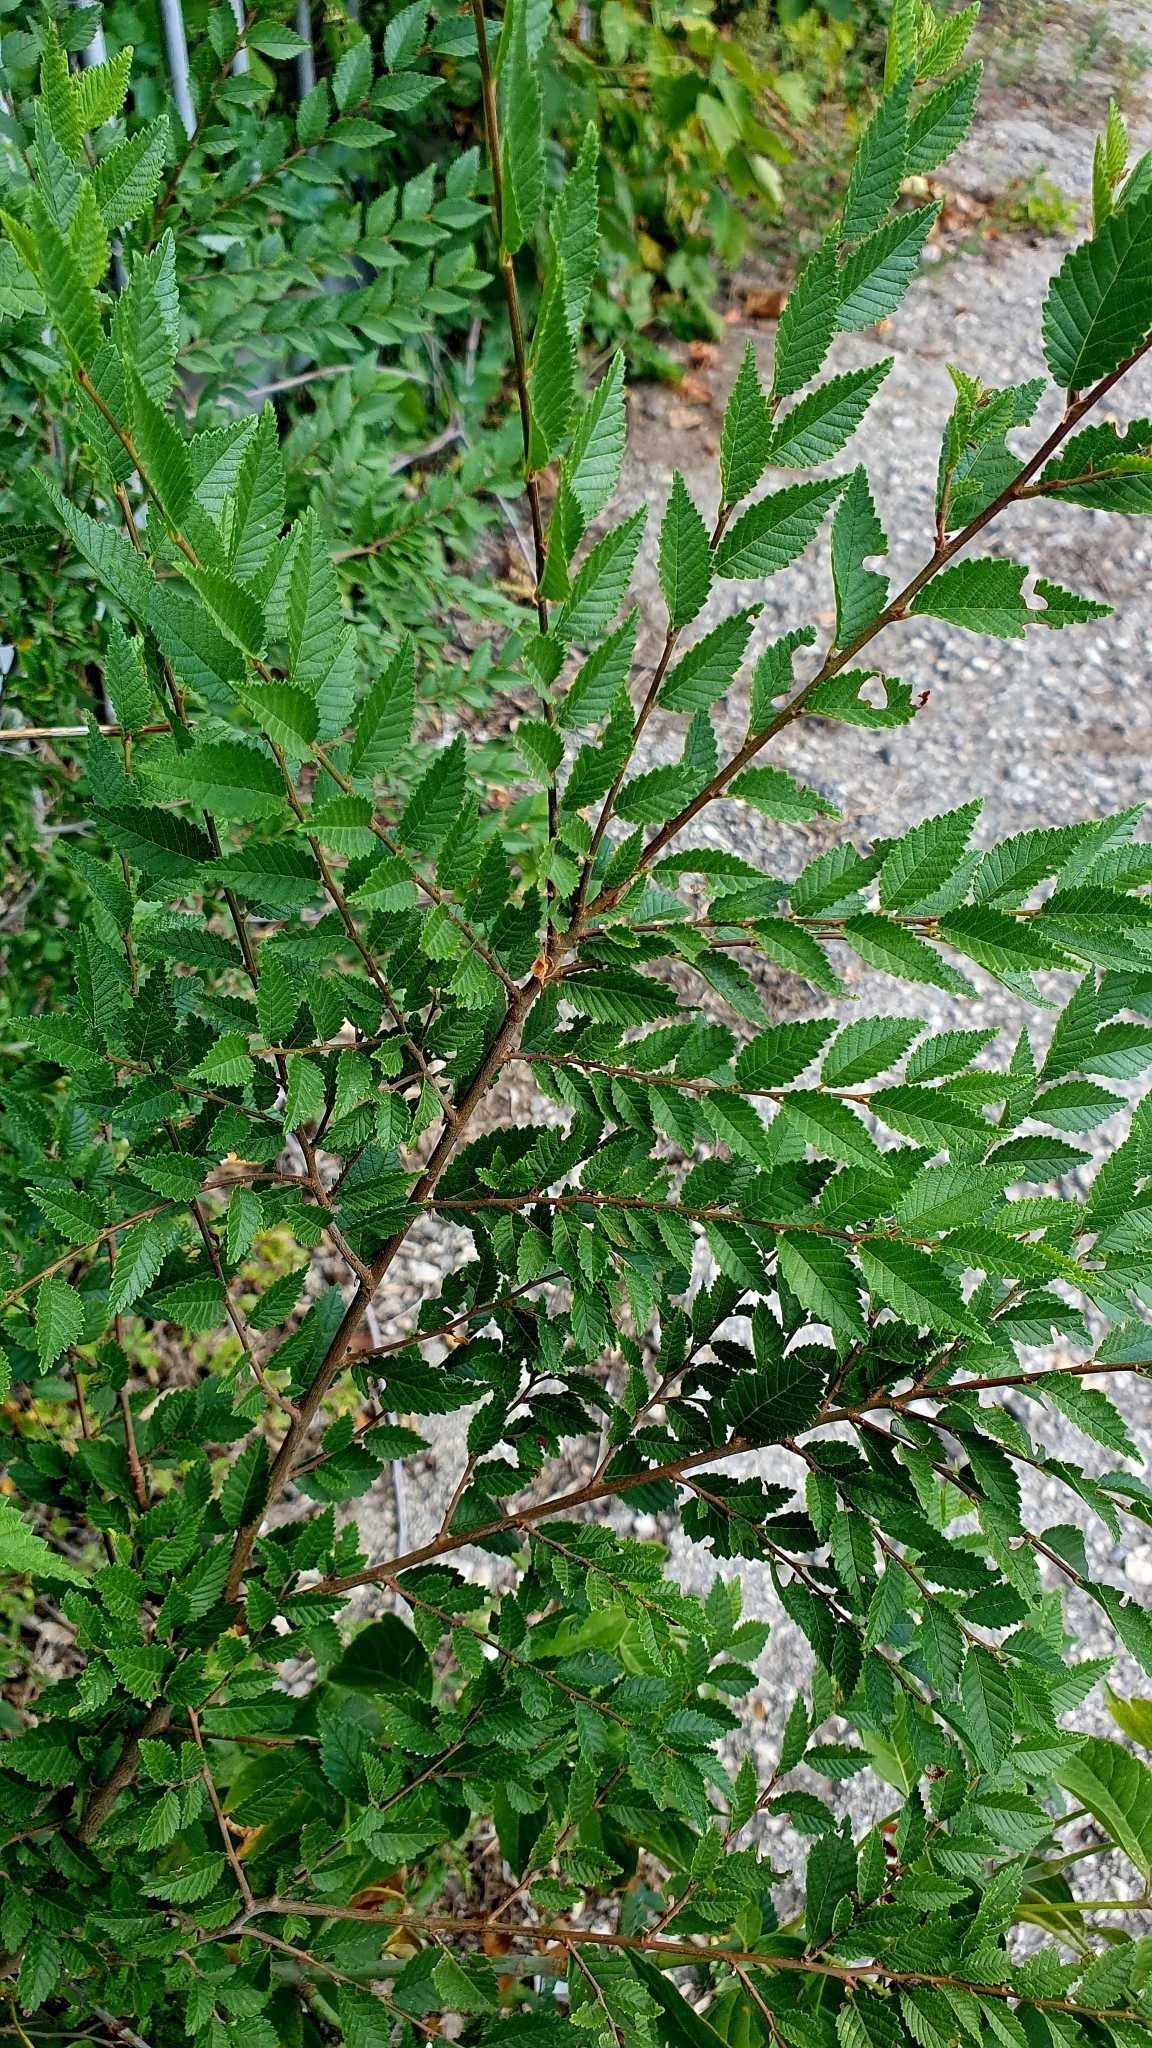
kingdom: Plantae
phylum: Tracheophyta
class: Magnoliopsida
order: Rosales
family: Ulmaceae
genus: Ulmus
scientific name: Ulmus pumila
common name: Siberian elm
